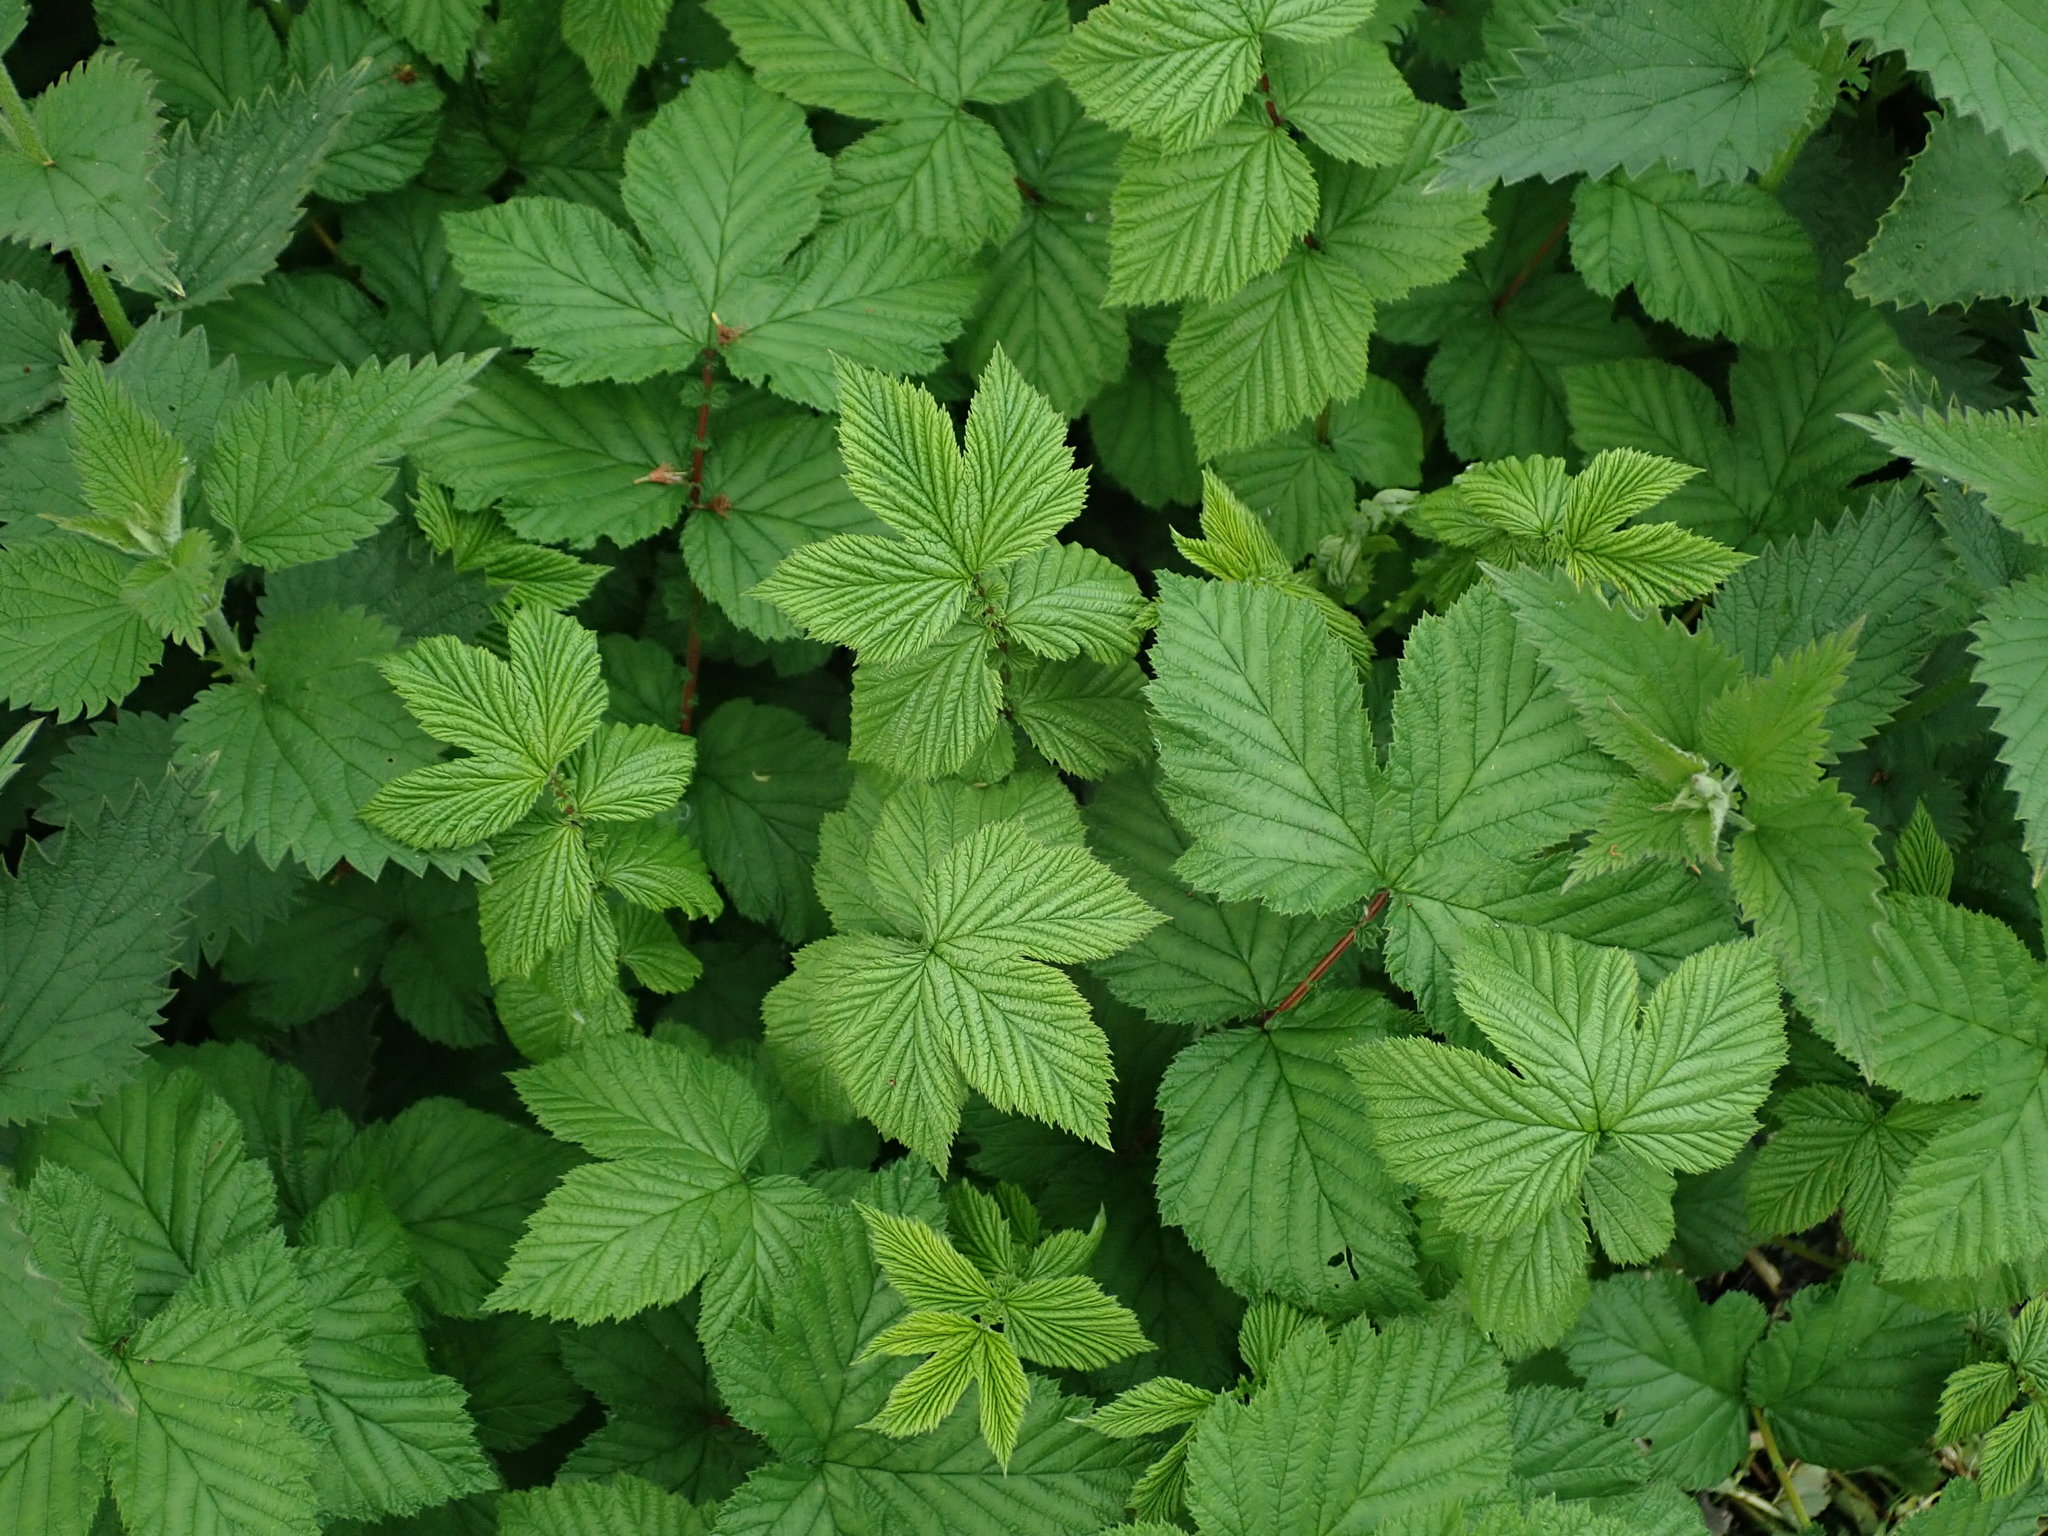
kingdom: Plantae
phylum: Tracheophyta
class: Magnoliopsida
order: Rosales
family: Rosaceae
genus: Filipendula
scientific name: Filipendula ulmaria
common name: Meadowsweet
